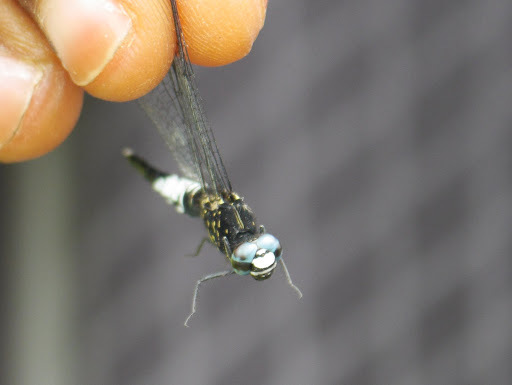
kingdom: Animalia
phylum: Arthropoda
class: Insecta
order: Odonata
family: Libellulidae
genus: Acisoma
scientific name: Acisoma trifidum
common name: Ivory pintail
